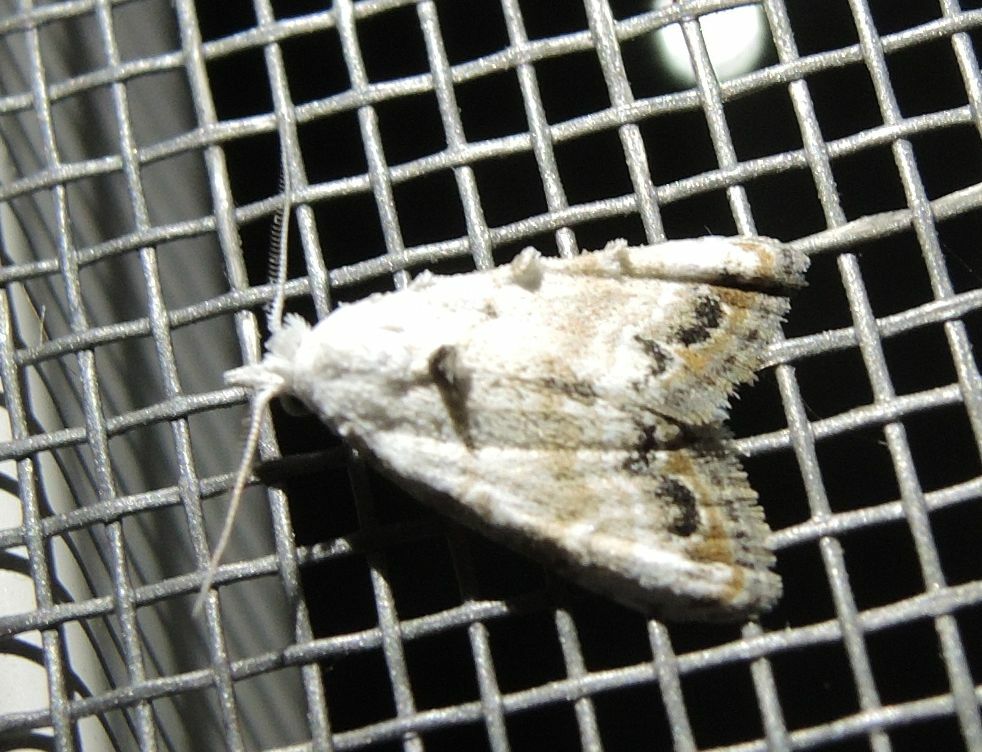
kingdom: Animalia
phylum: Arthropoda
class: Insecta
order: Lepidoptera
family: Nolidae
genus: Nola
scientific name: Nola chlamitulalis
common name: Jersey black arches
